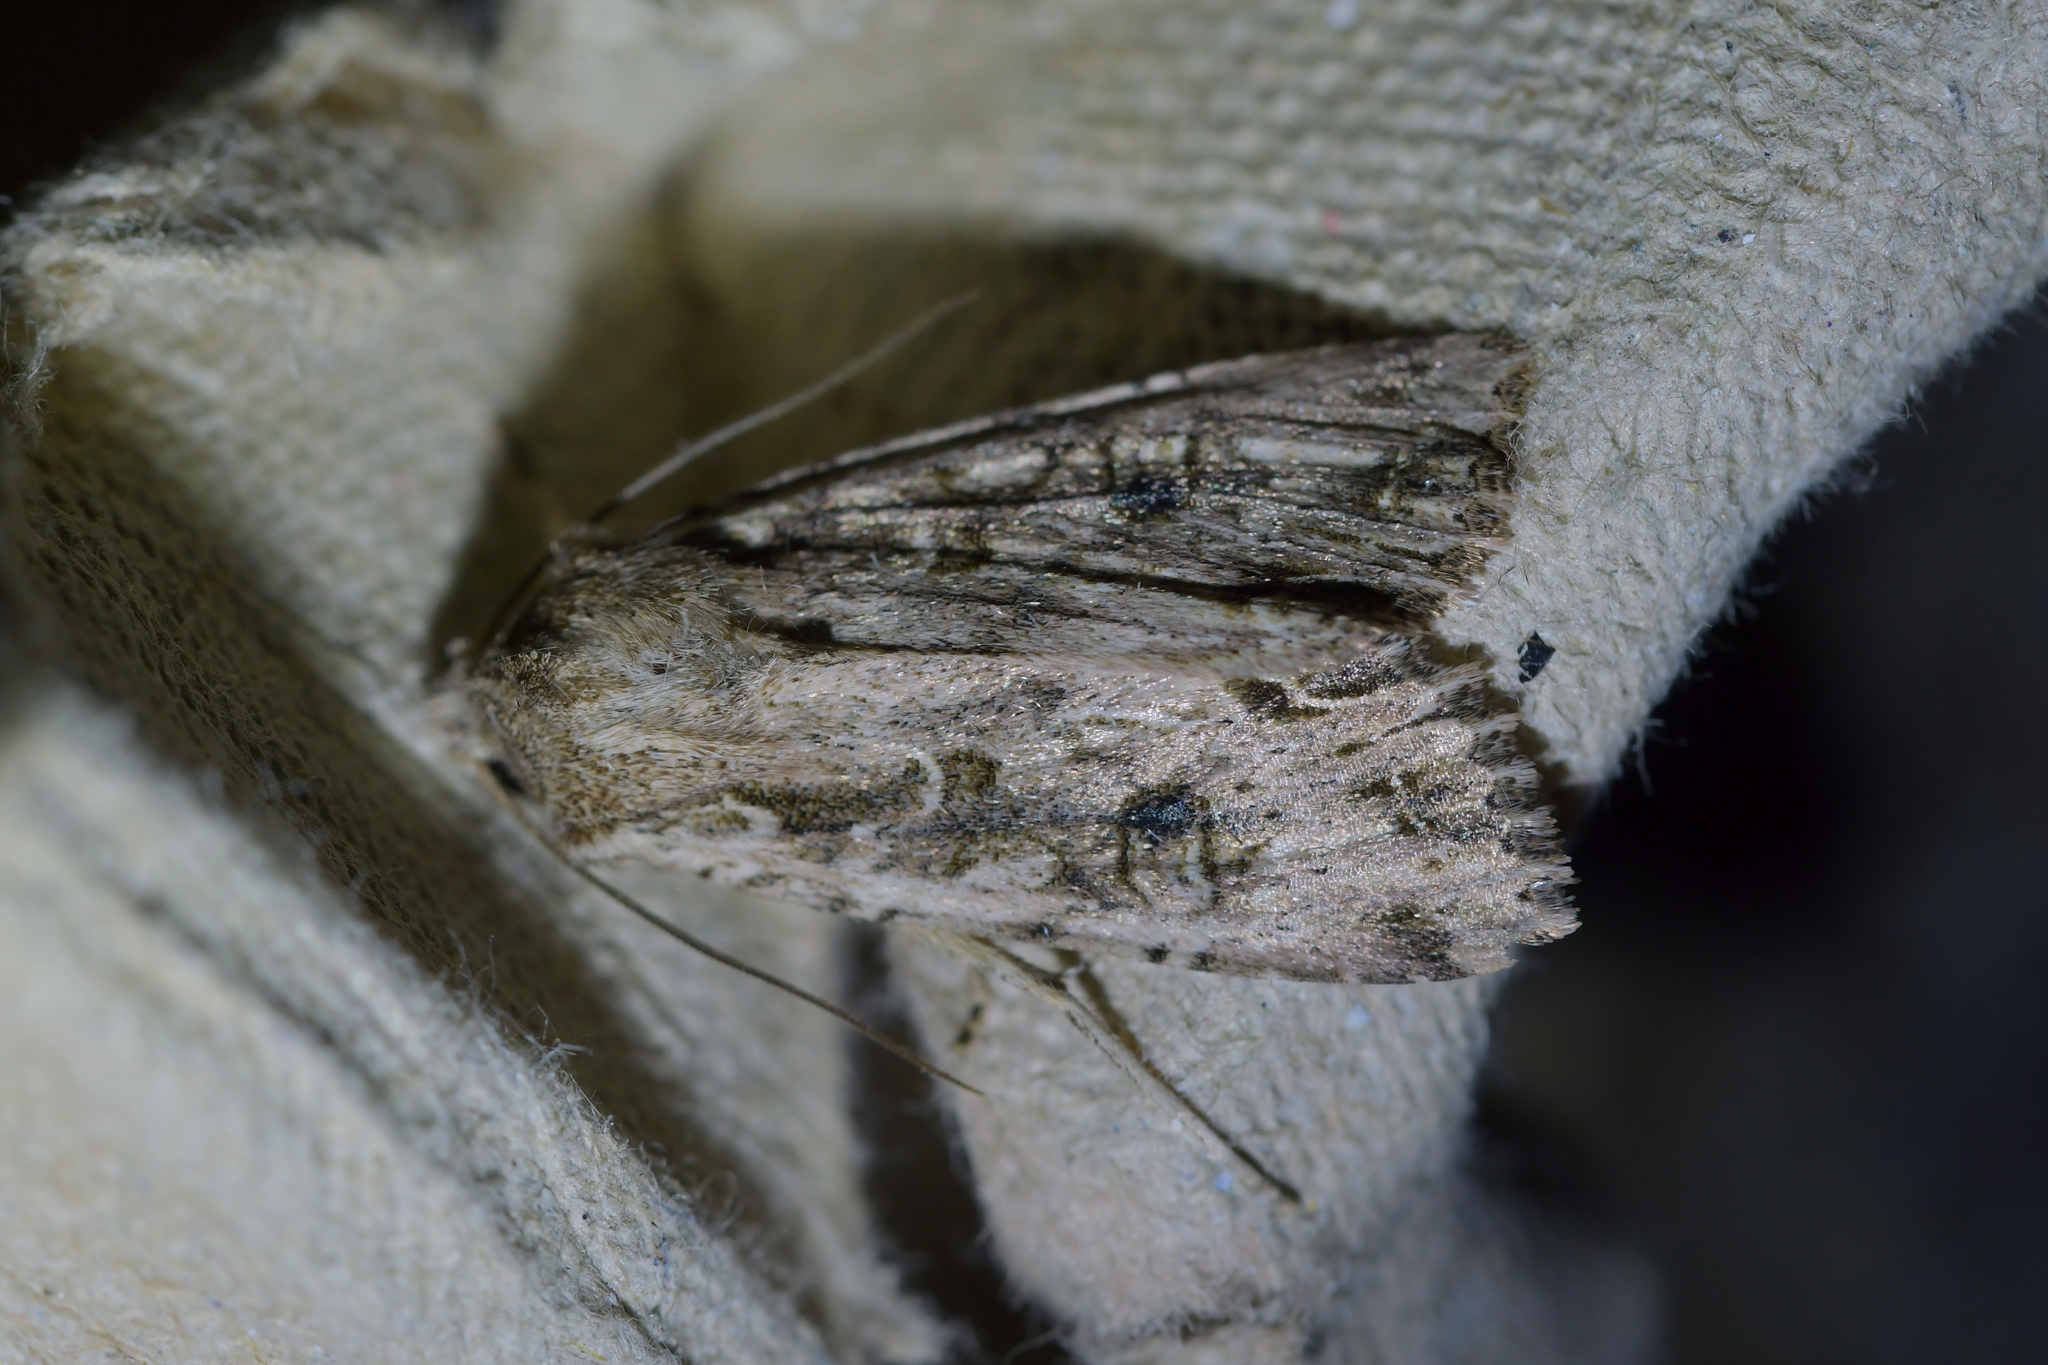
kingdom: Animalia
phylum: Arthropoda
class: Insecta
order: Lepidoptera
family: Noctuidae
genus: Ichneutica
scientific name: Ichneutica lignana
